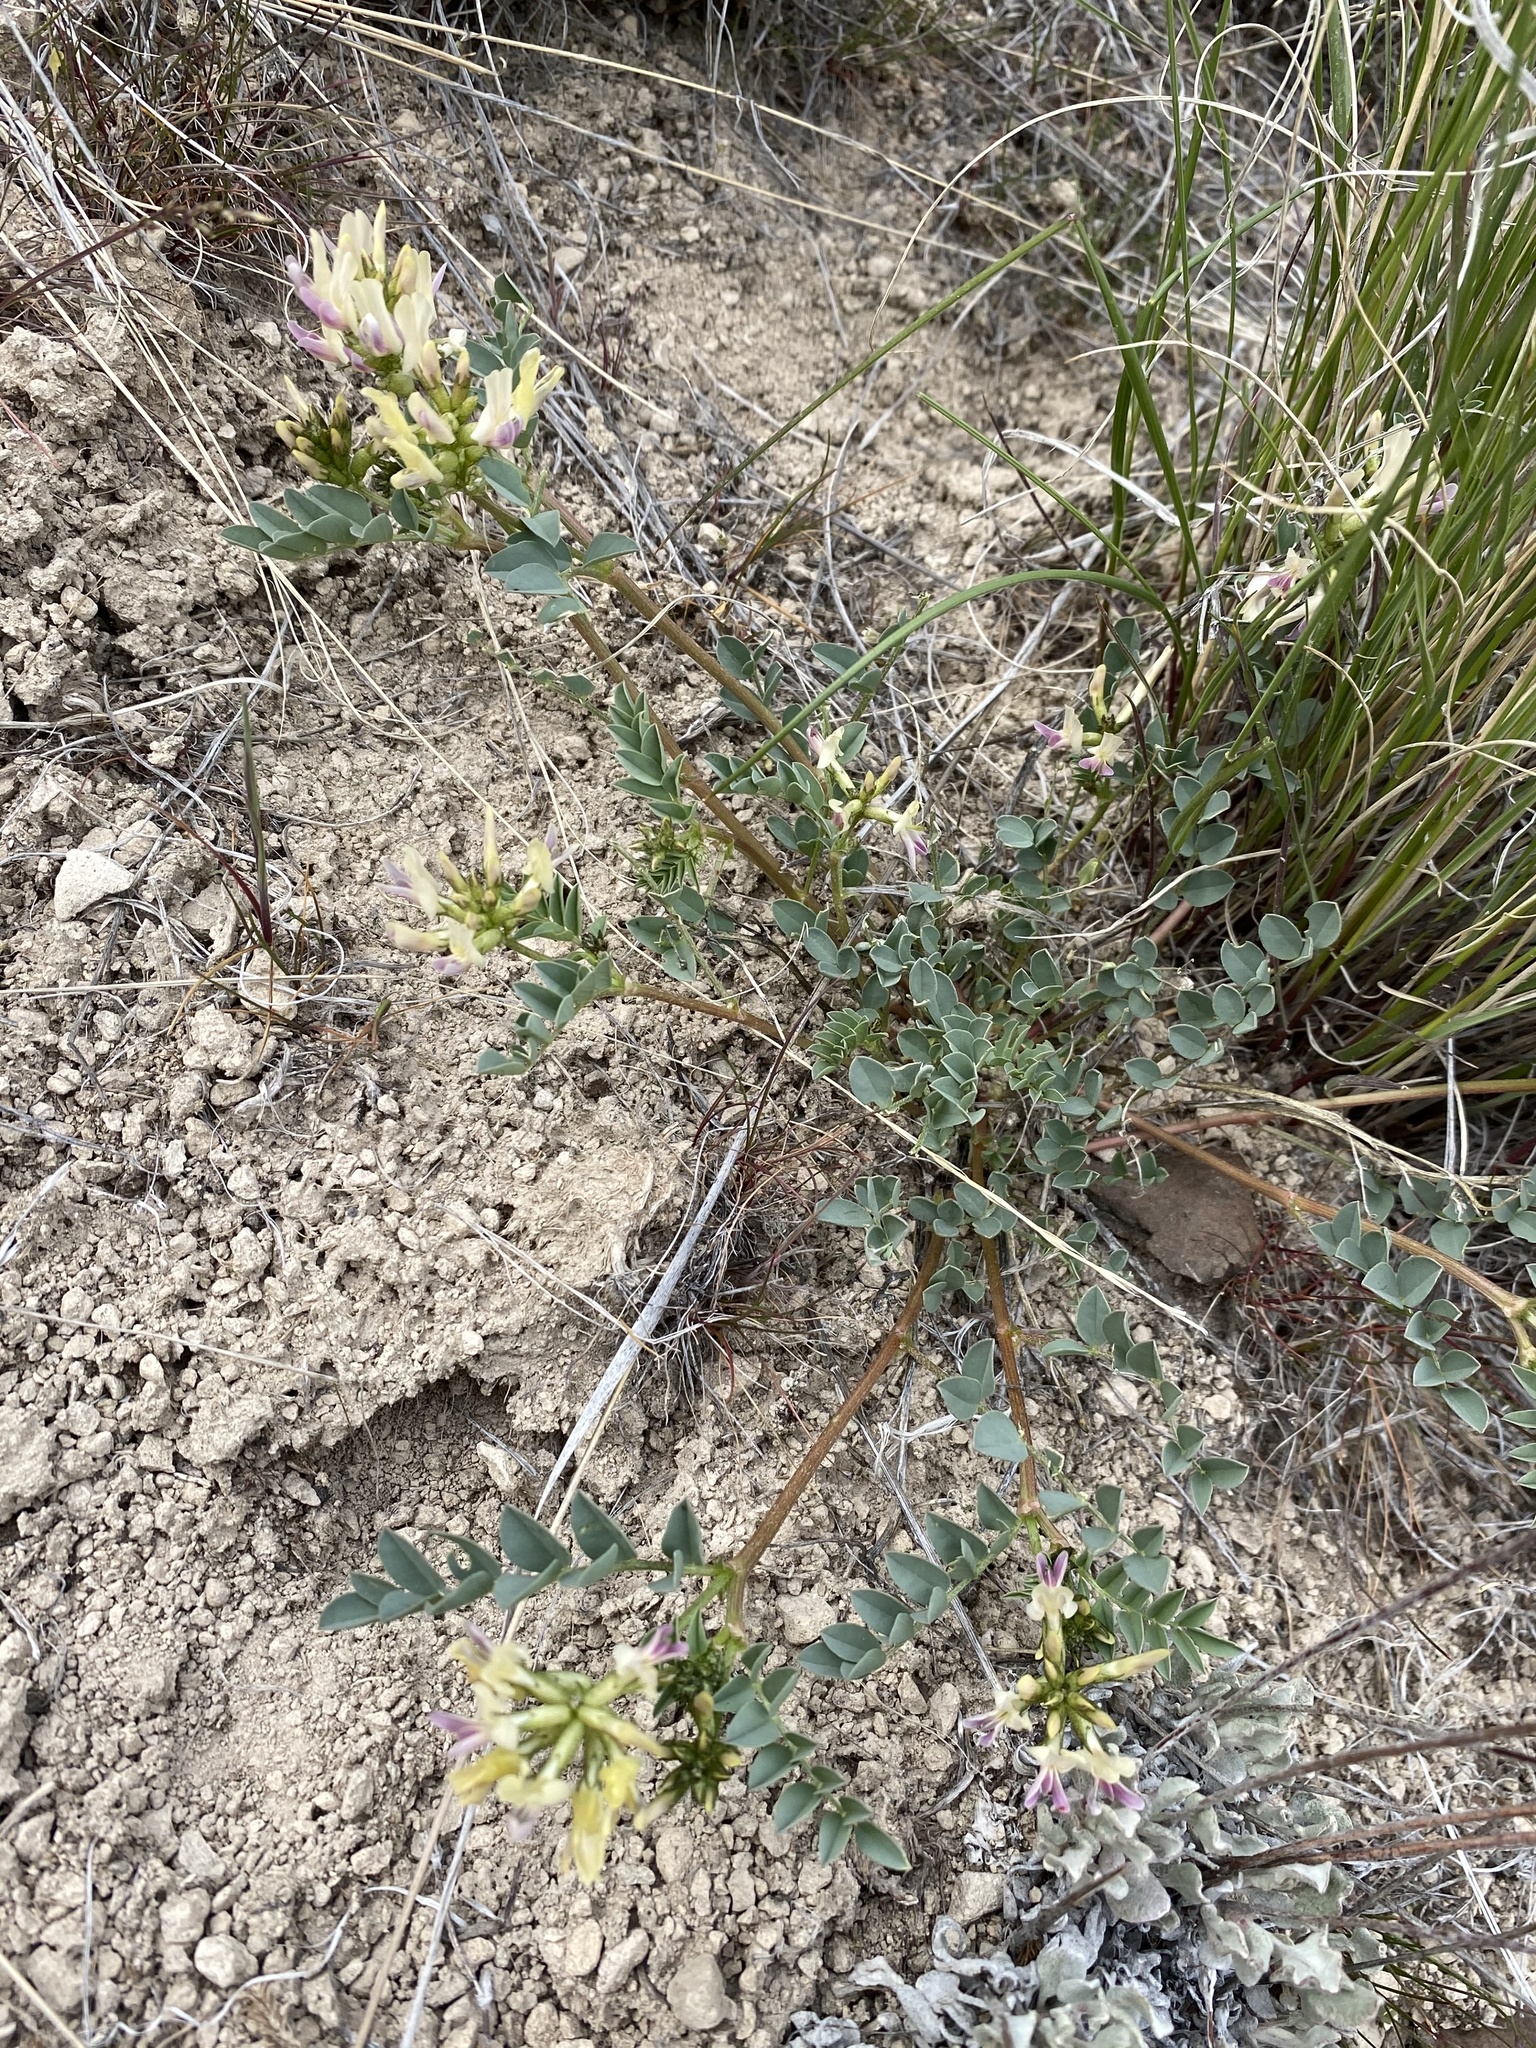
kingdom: Plantae
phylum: Tracheophyta
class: Magnoliopsida
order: Fabales
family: Fabaceae
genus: Astragalus
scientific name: Astragalus lentiginosus
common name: Freckled milkvetch
